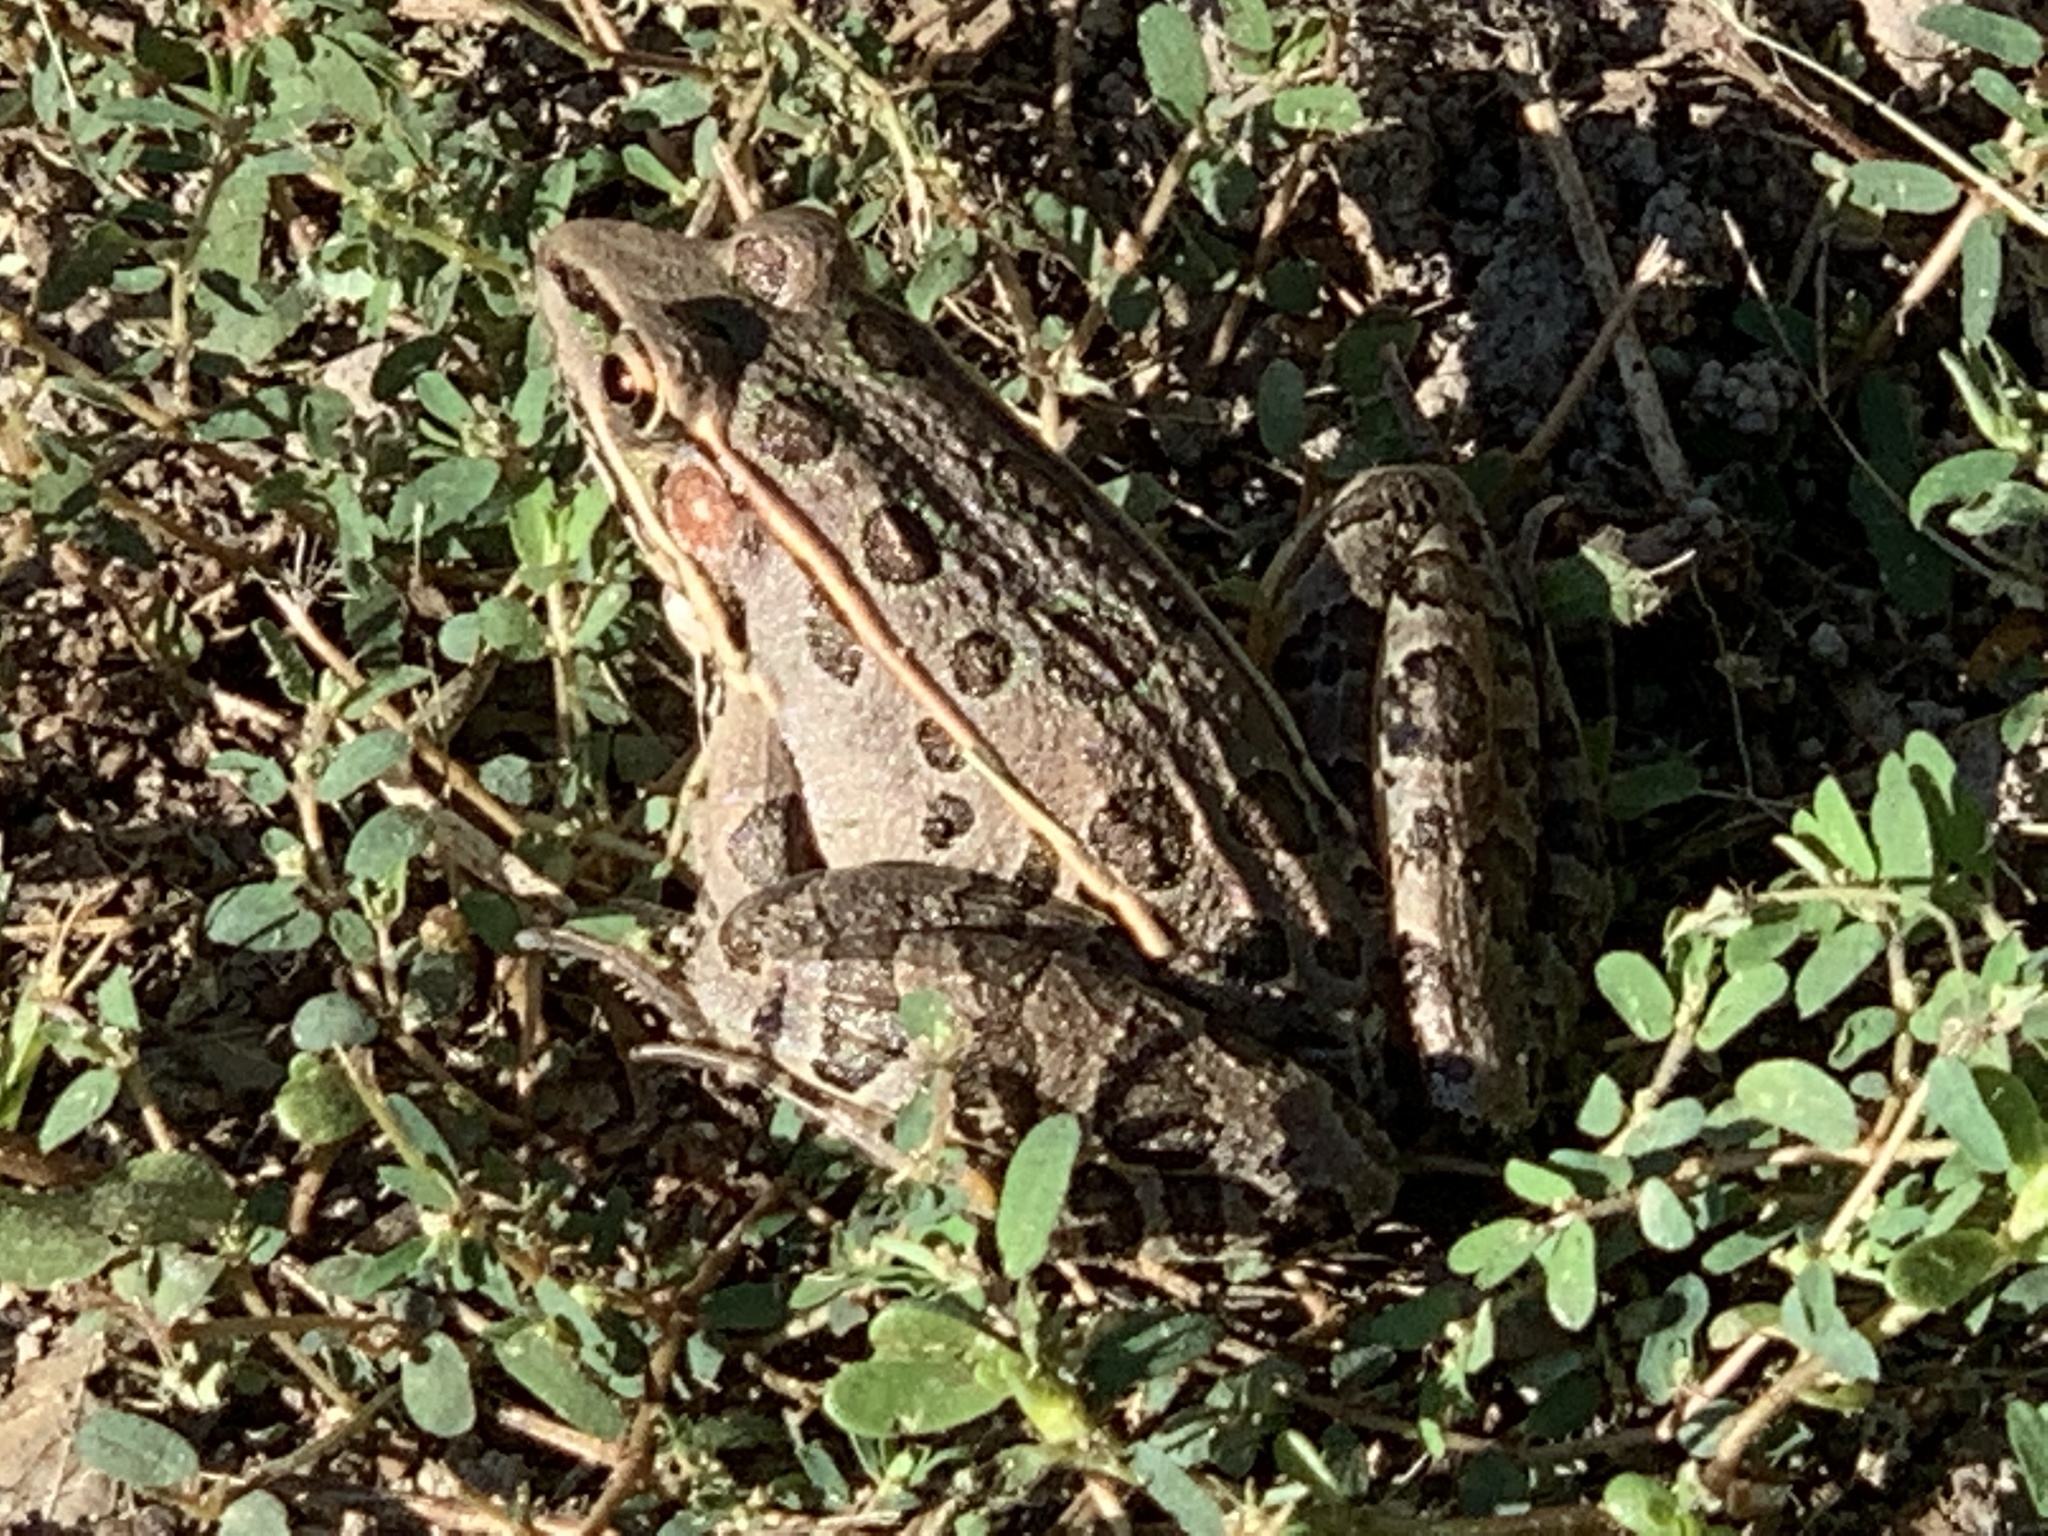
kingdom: Animalia
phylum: Chordata
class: Amphibia
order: Anura
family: Ranidae
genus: Lithobates
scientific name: Lithobates sphenocephalus
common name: Southern leopard frog
